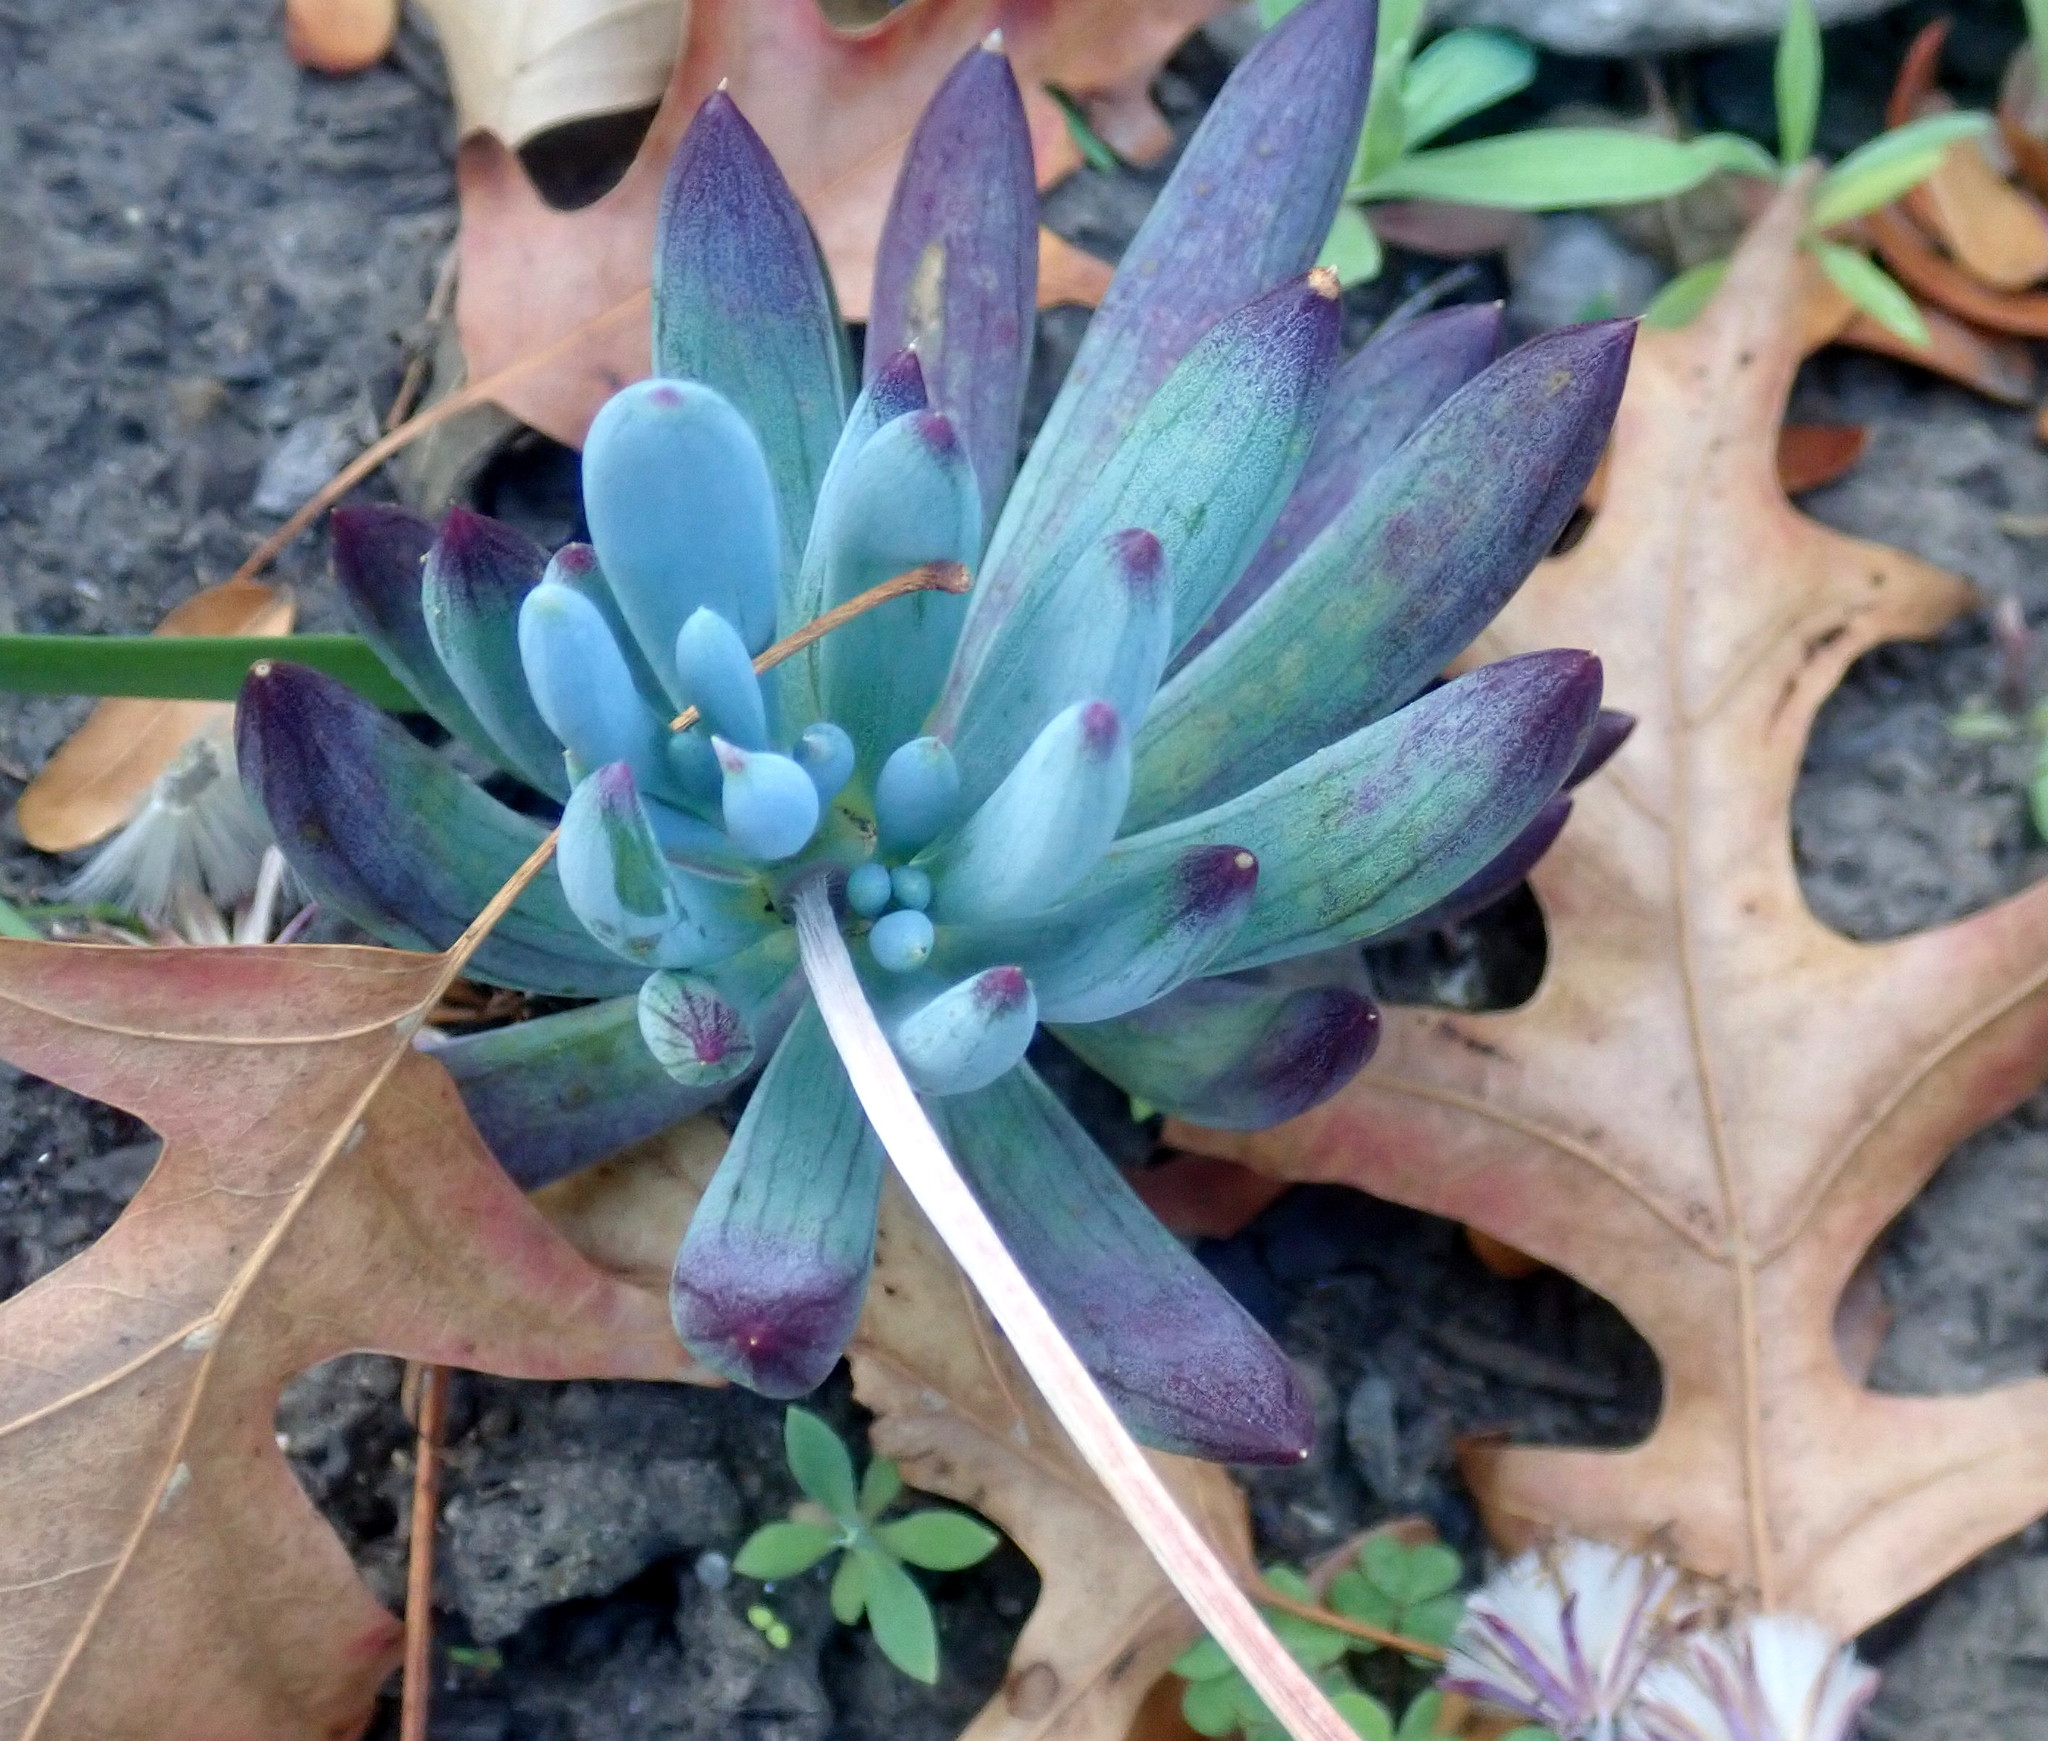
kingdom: Plantae
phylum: Tracheophyta
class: Magnoliopsida
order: Asterales
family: Asteraceae
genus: Curio
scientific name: Curio crassulifolius
